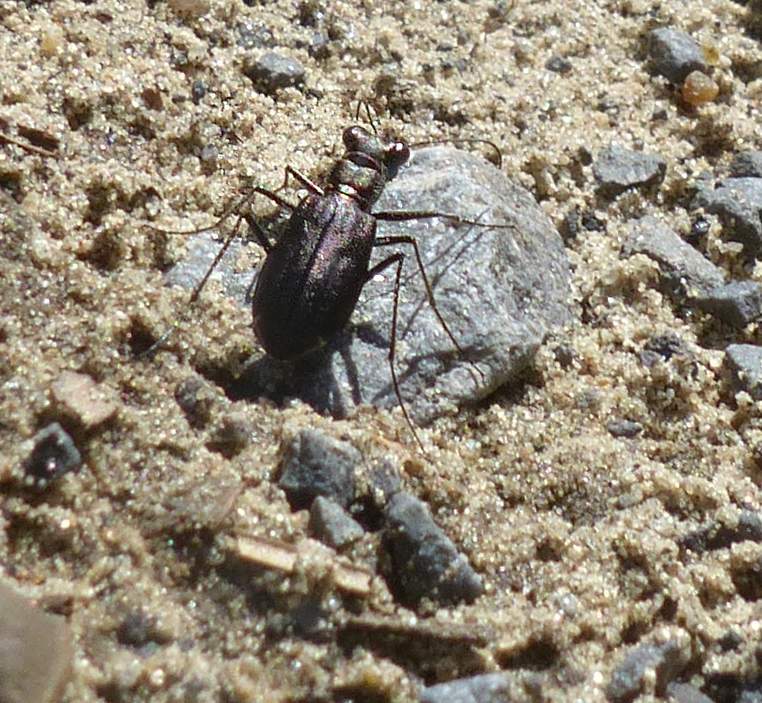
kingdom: Animalia
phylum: Arthropoda
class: Insecta
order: Coleoptera
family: Carabidae
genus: Cicindela
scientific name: Cicindela punctulata
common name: Punctured tiger beetle
